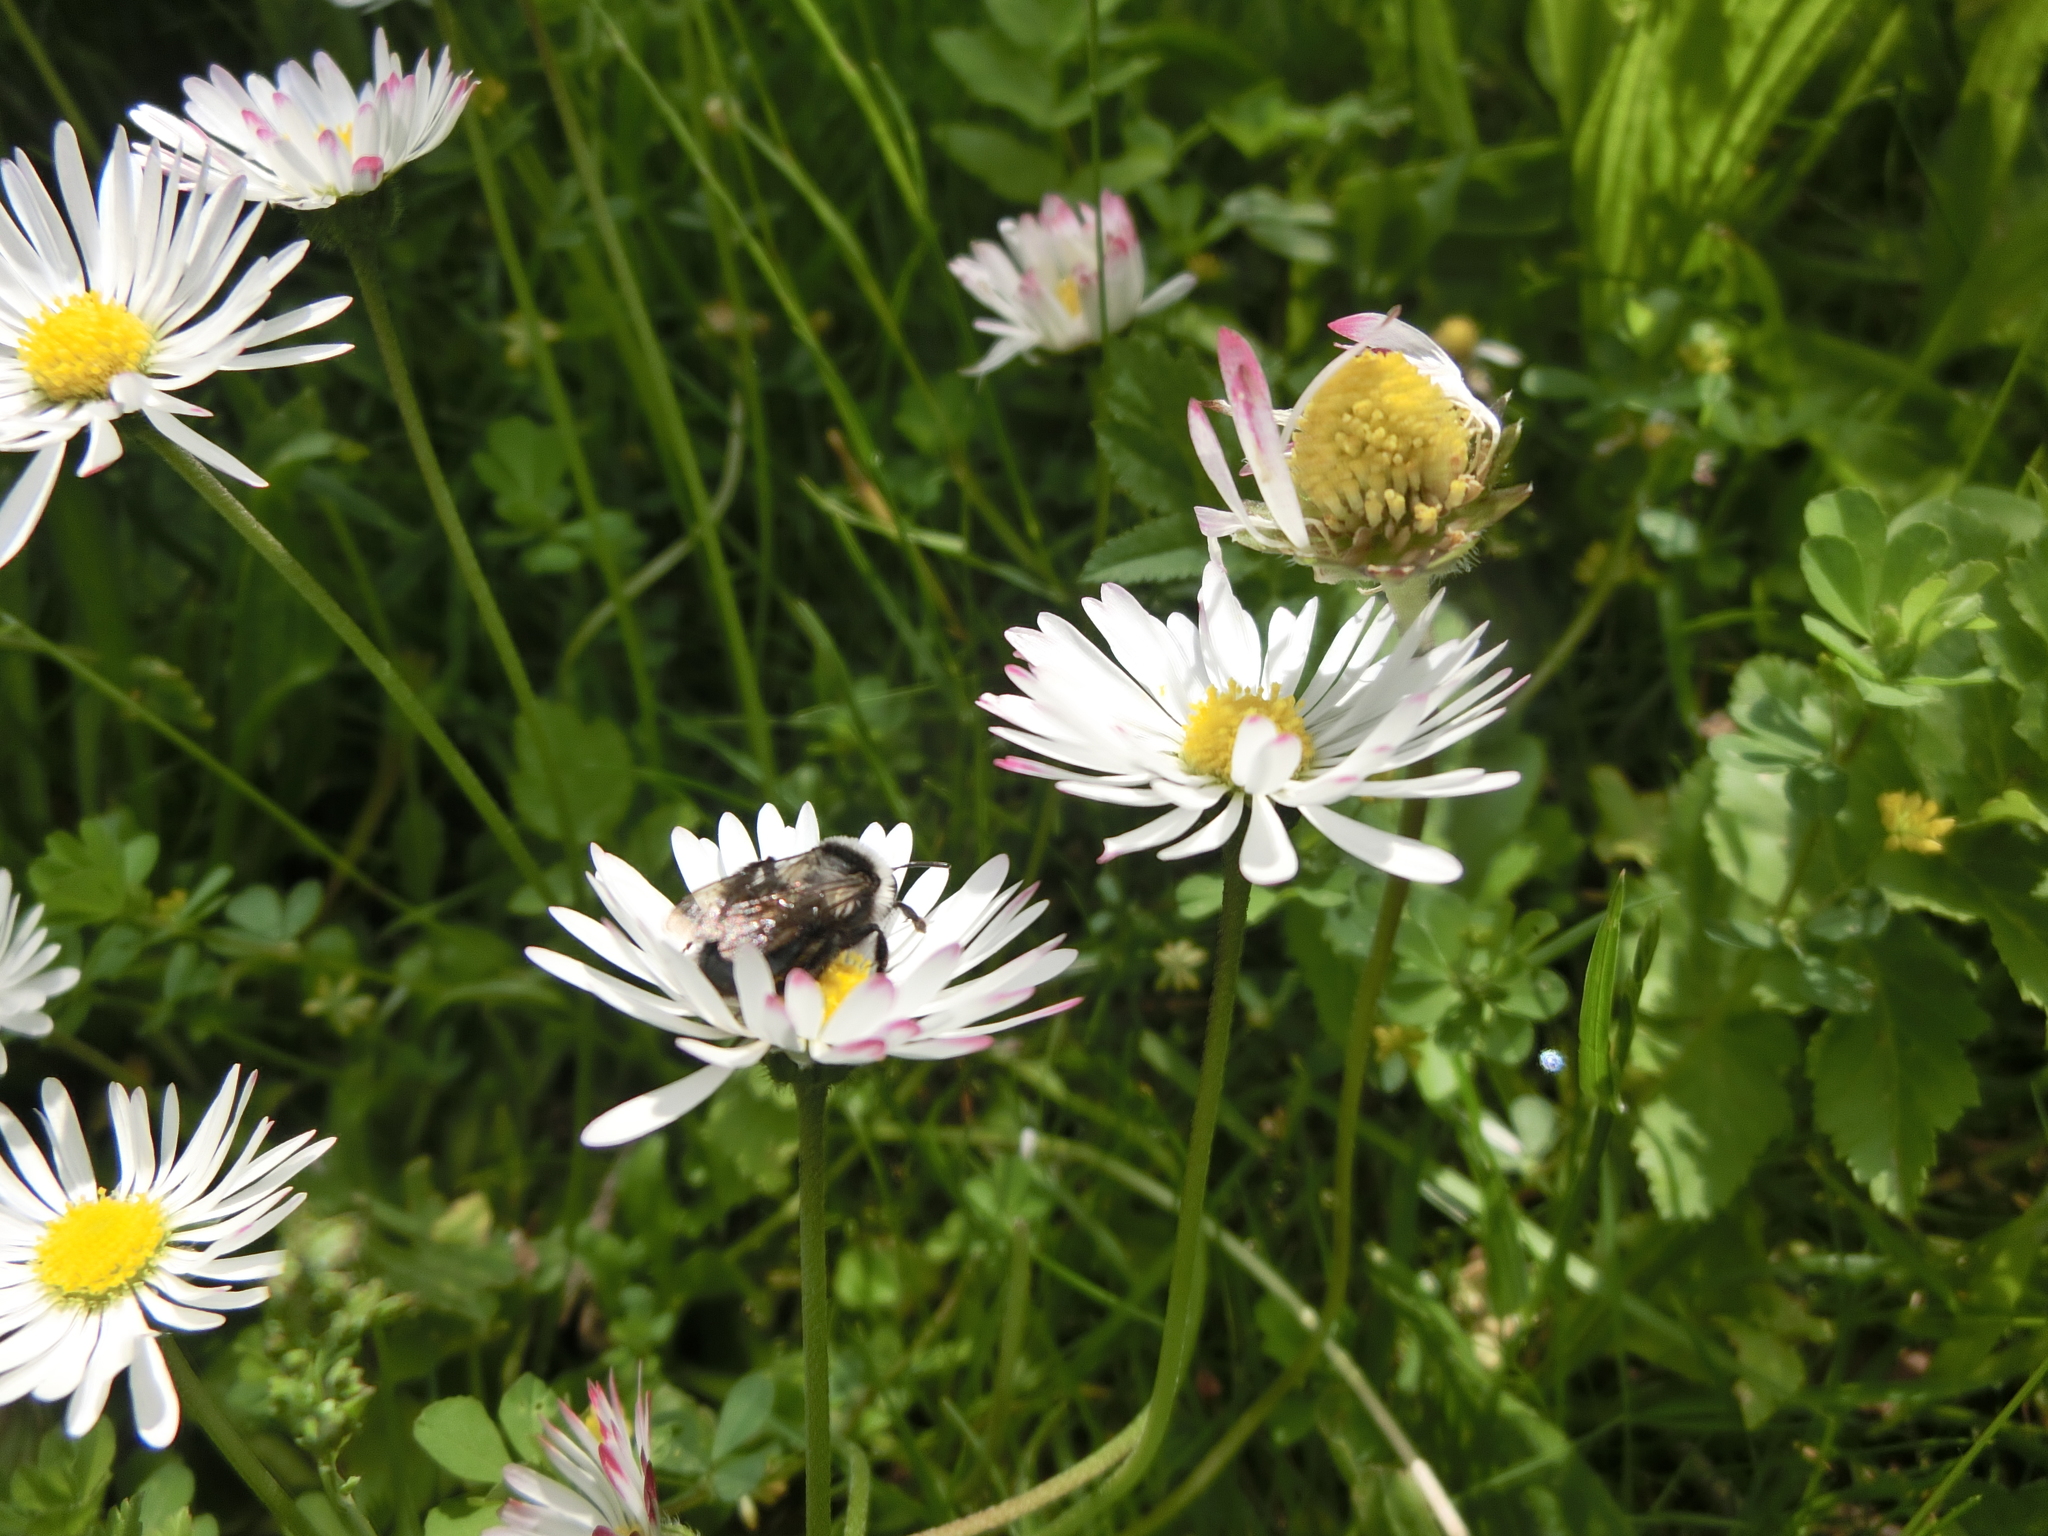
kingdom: Animalia
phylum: Arthropoda
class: Insecta
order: Hymenoptera
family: Andrenidae
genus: Andrena
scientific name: Andrena cineraria
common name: Ashy mining bee
